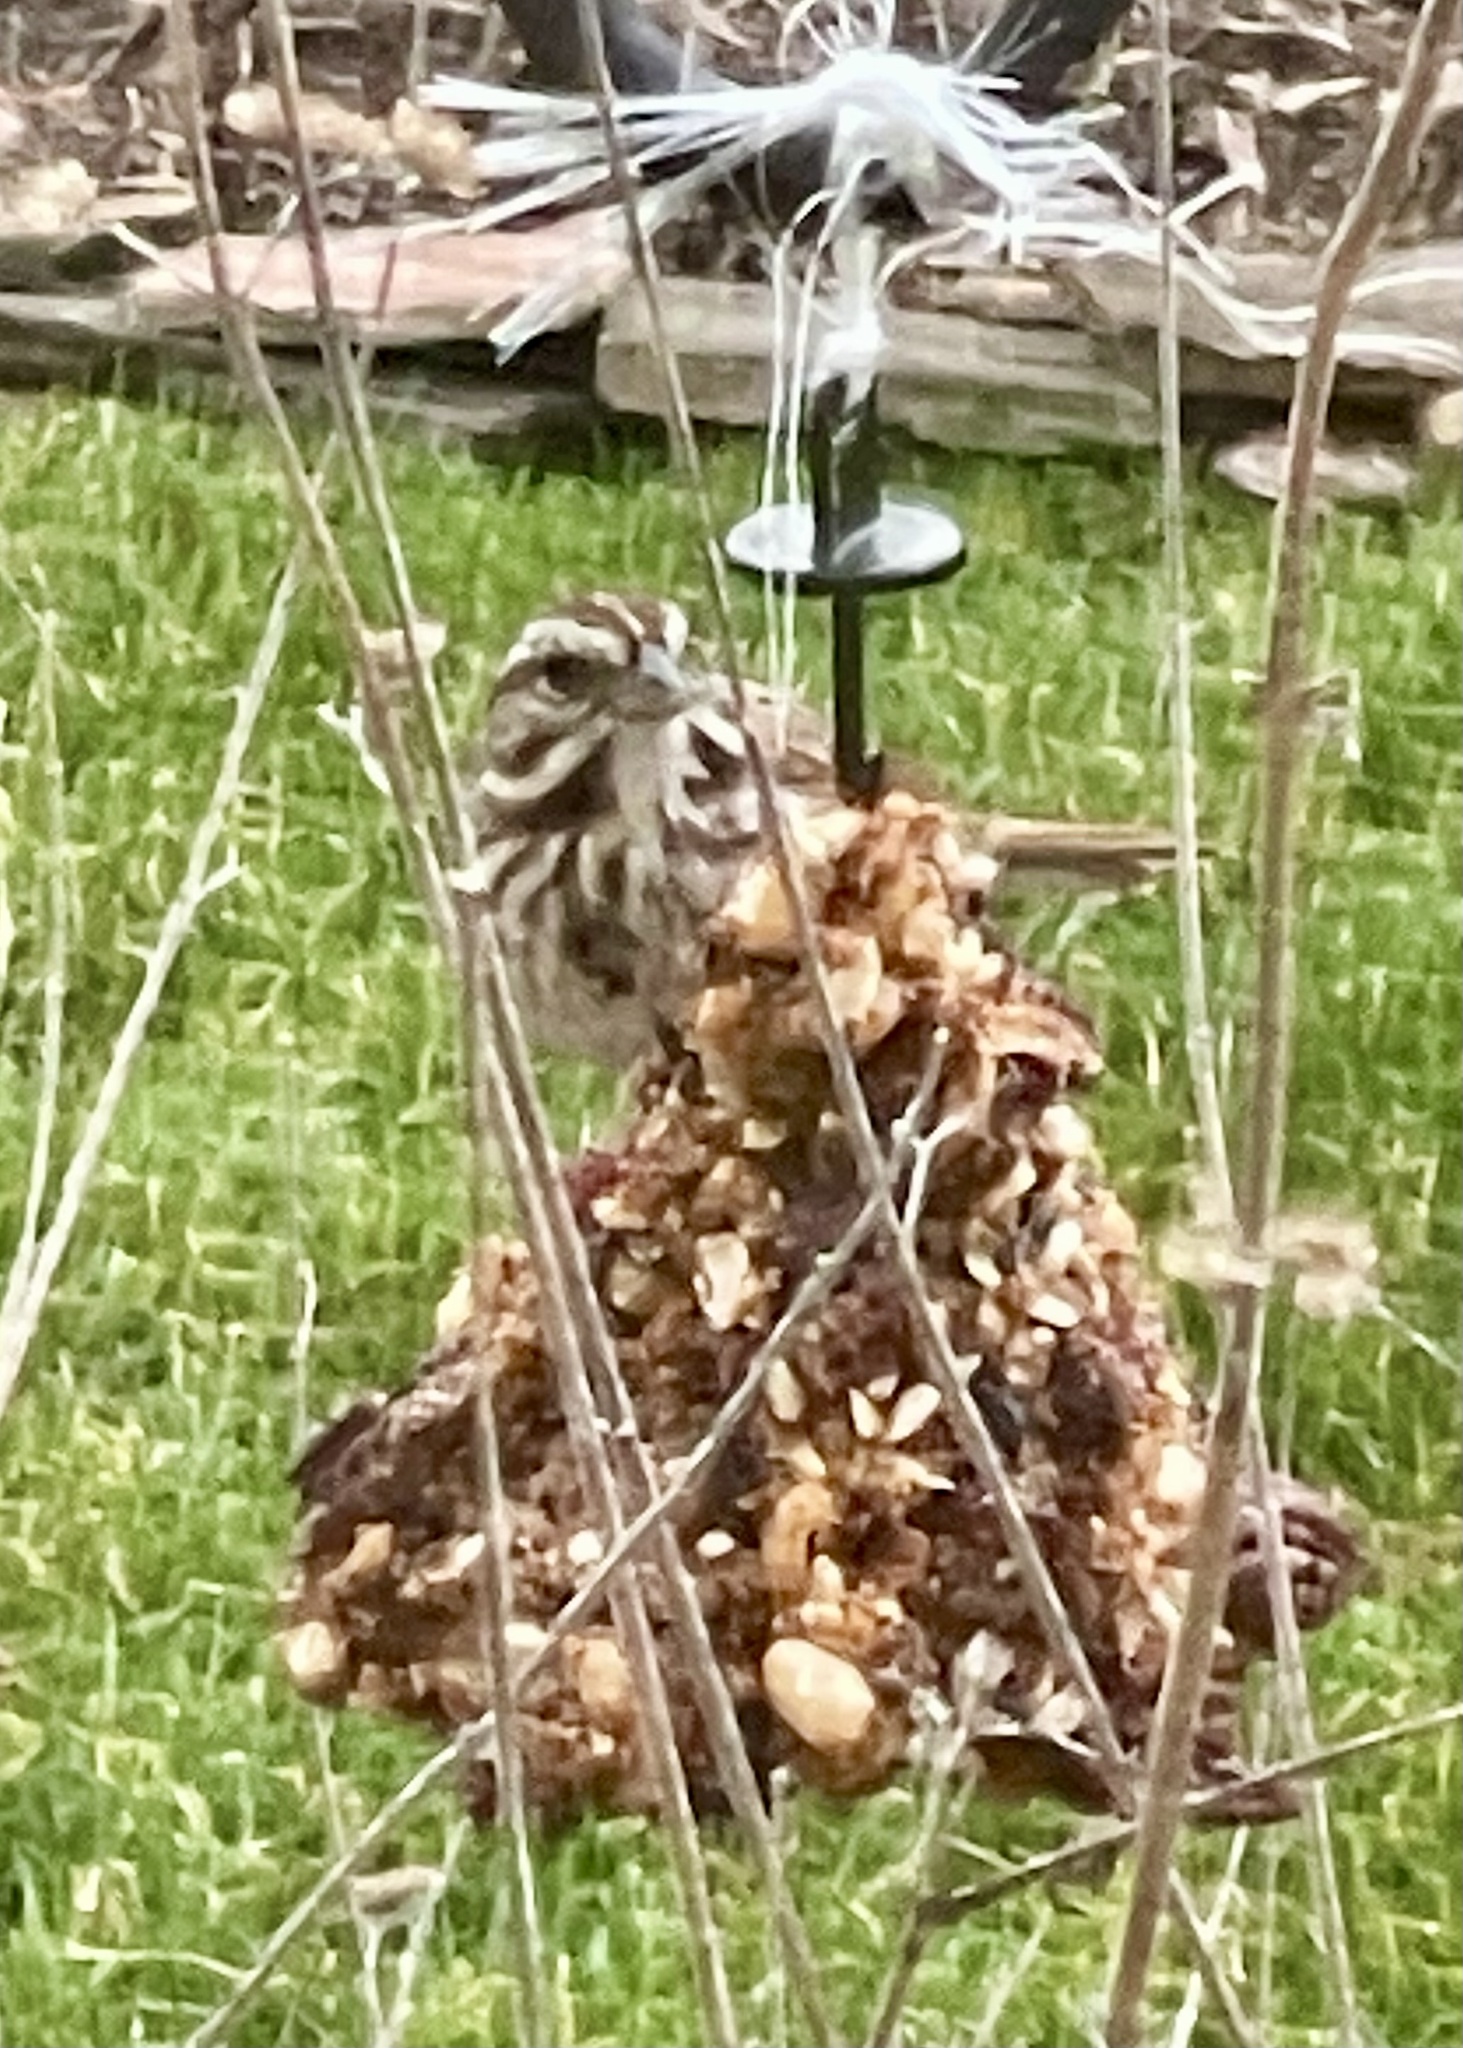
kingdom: Animalia
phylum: Chordata
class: Aves
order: Passeriformes
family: Passerellidae
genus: Melospiza
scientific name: Melospiza melodia
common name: Song sparrow
